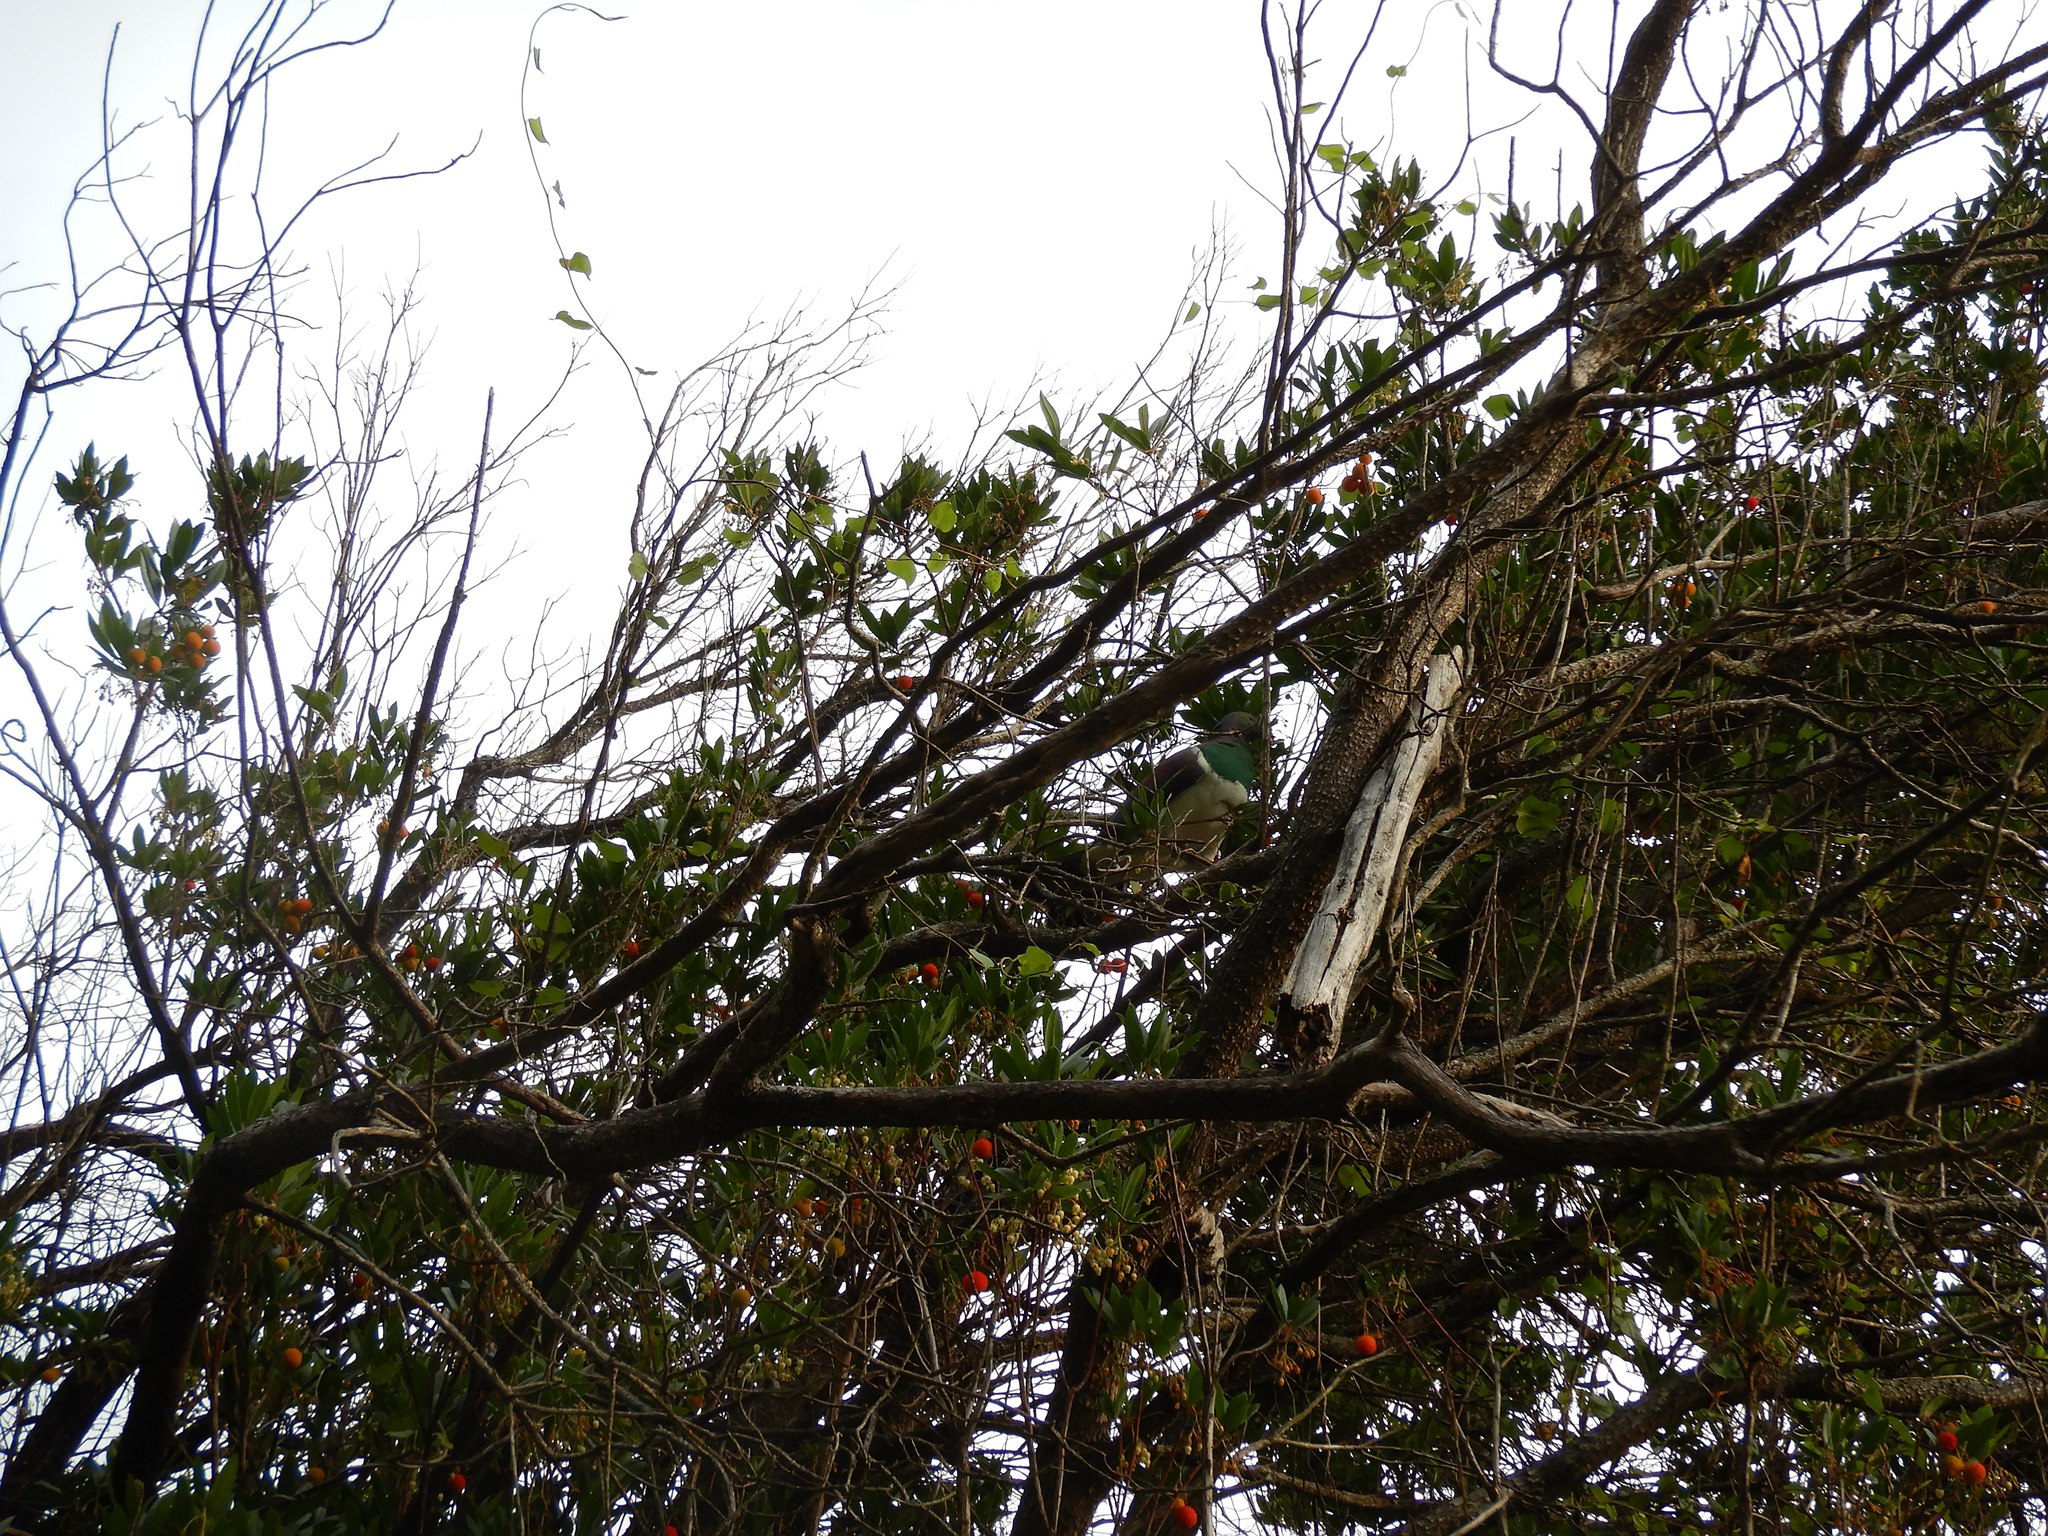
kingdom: Animalia
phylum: Chordata
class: Aves
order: Columbiformes
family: Columbidae
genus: Hemiphaga
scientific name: Hemiphaga novaeseelandiae
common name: New zealand pigeon
